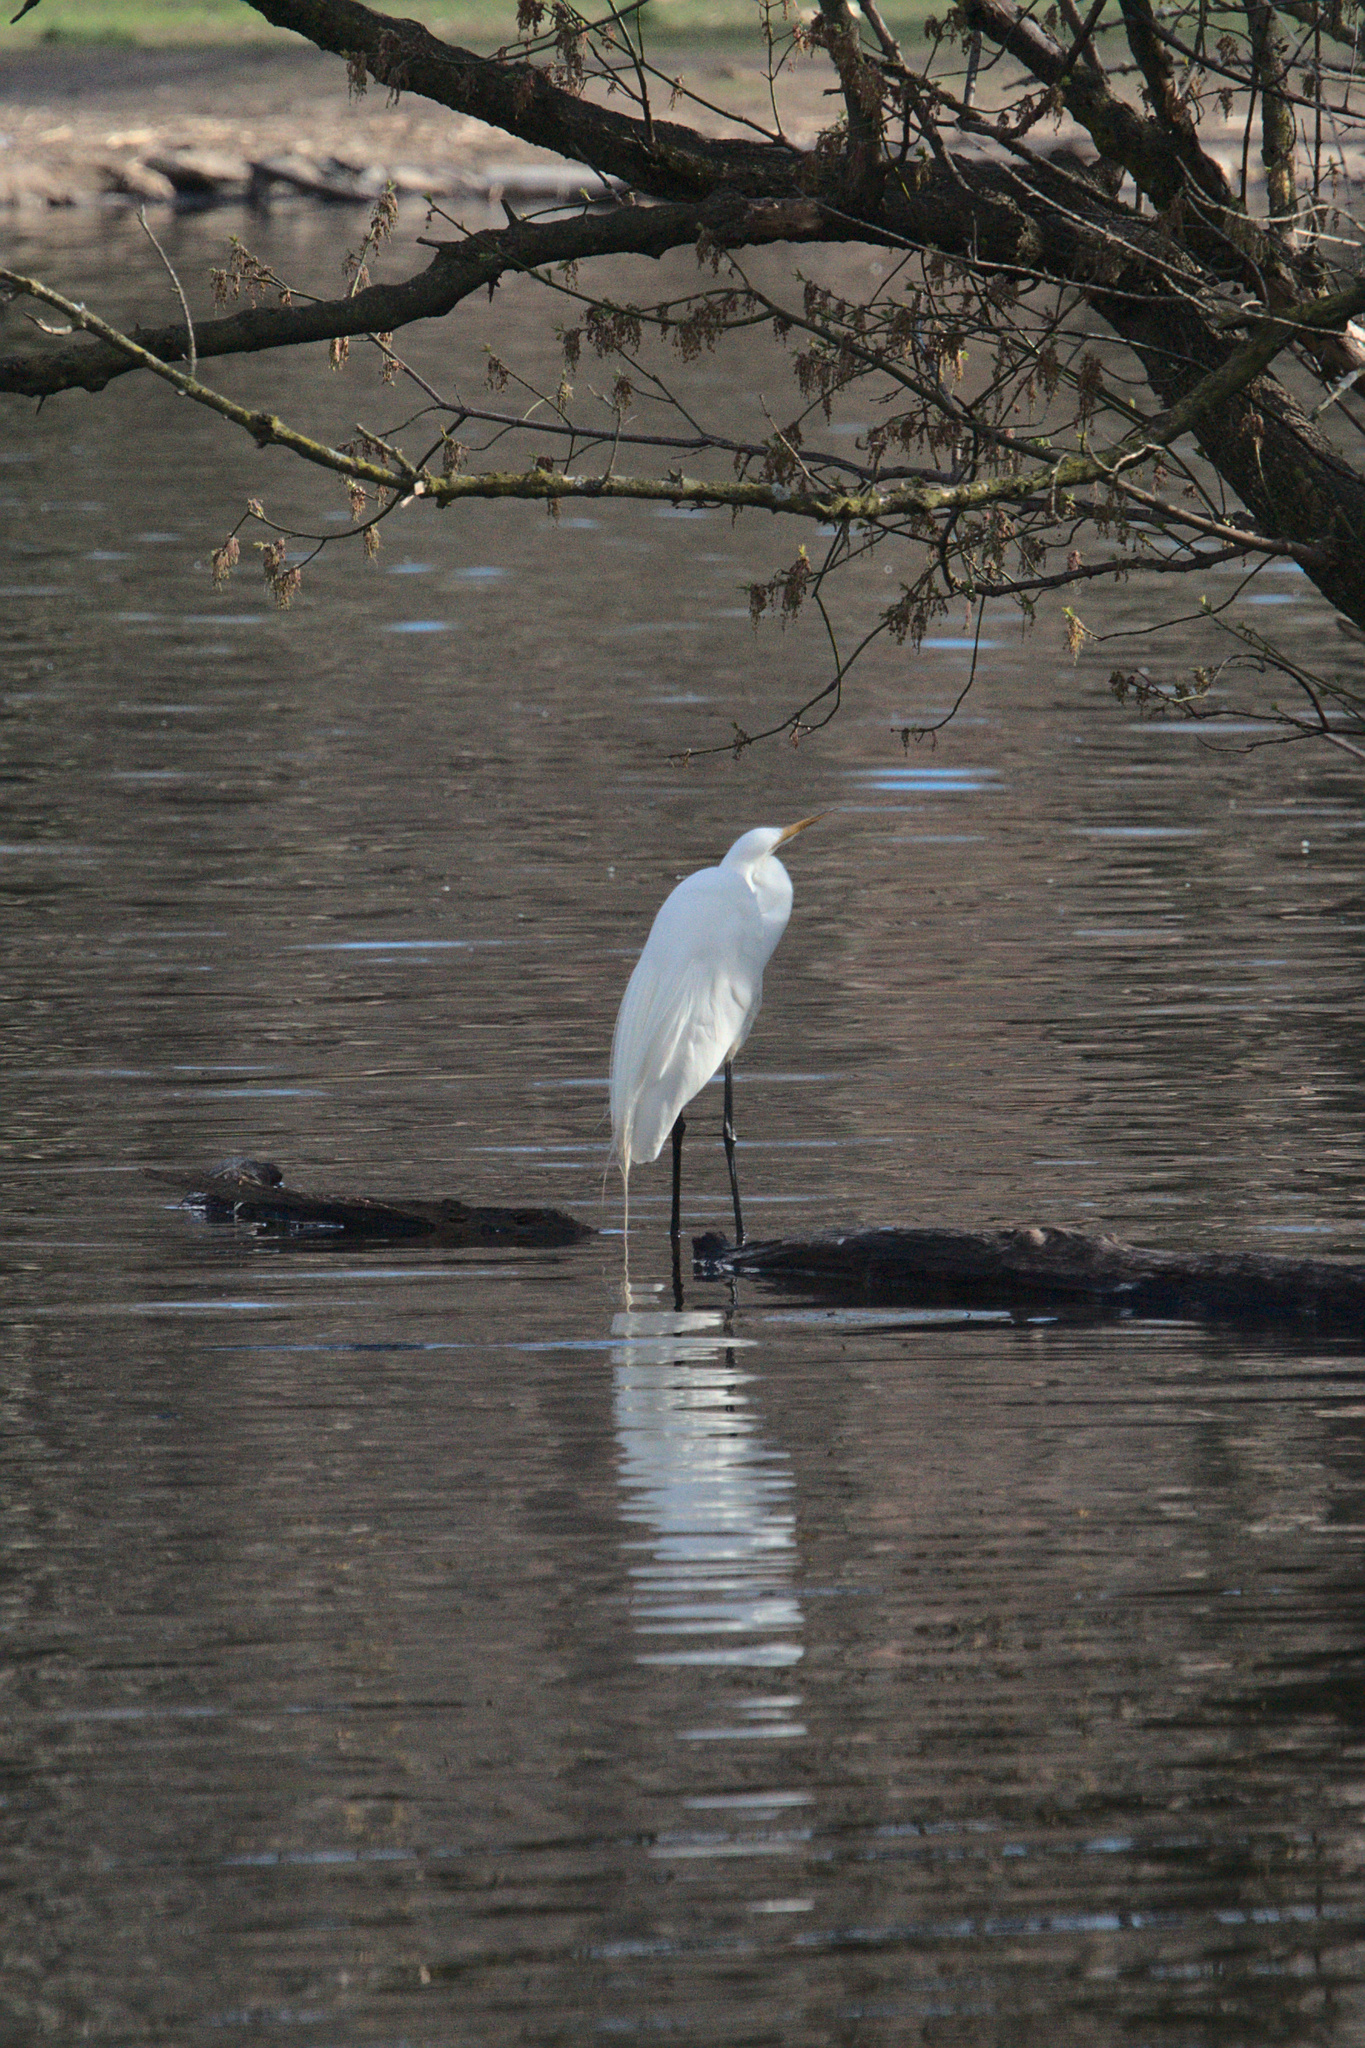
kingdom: Animalia
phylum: Chordata
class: Aves
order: Pelecaniformes
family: Ardeidae
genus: Ardea
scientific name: Ardea alba
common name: Great egret
